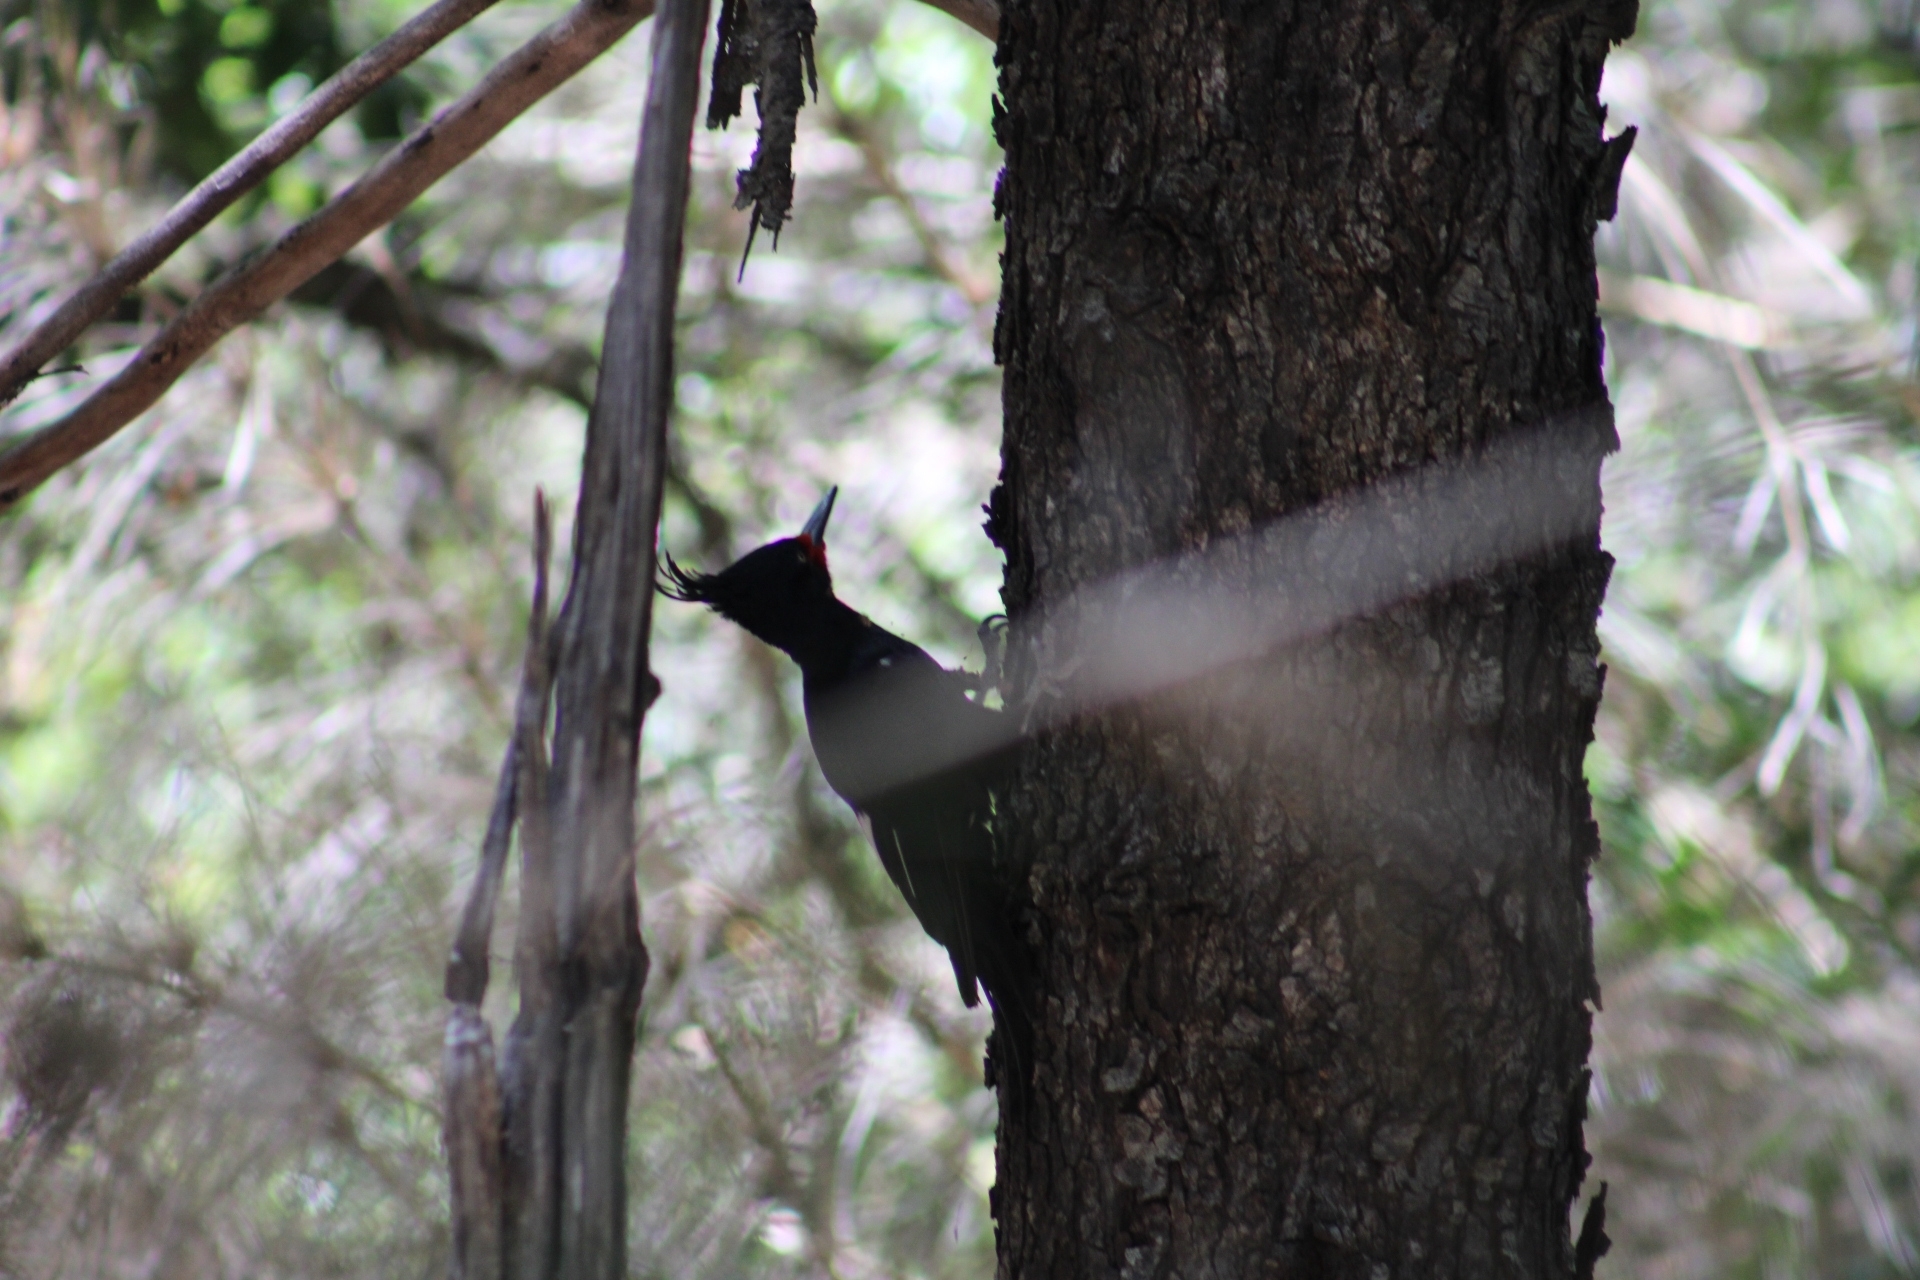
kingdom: Animalia
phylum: Chordata
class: Aves
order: Piciformes
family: Picidae
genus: Campephilus
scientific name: Campephilus magellanicus
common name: Magellanic woodpecker
